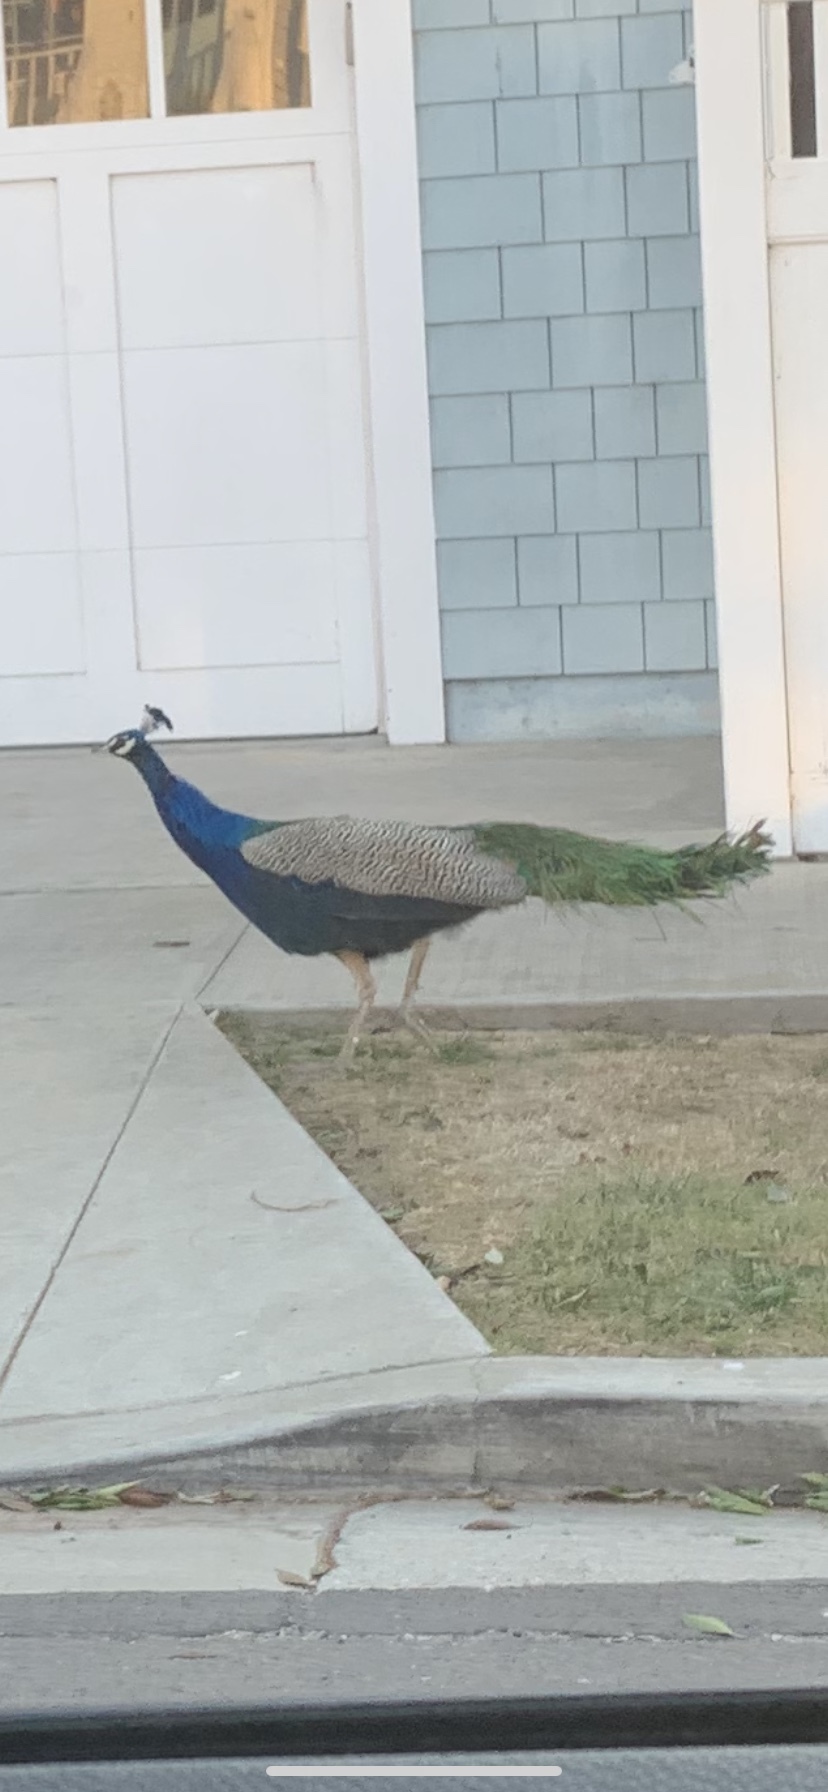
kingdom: Animalia
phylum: Chordata
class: Aves
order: Galliformes
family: Phasianidae
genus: Pavo
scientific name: Pavo cristatus
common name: Indian peafowl
